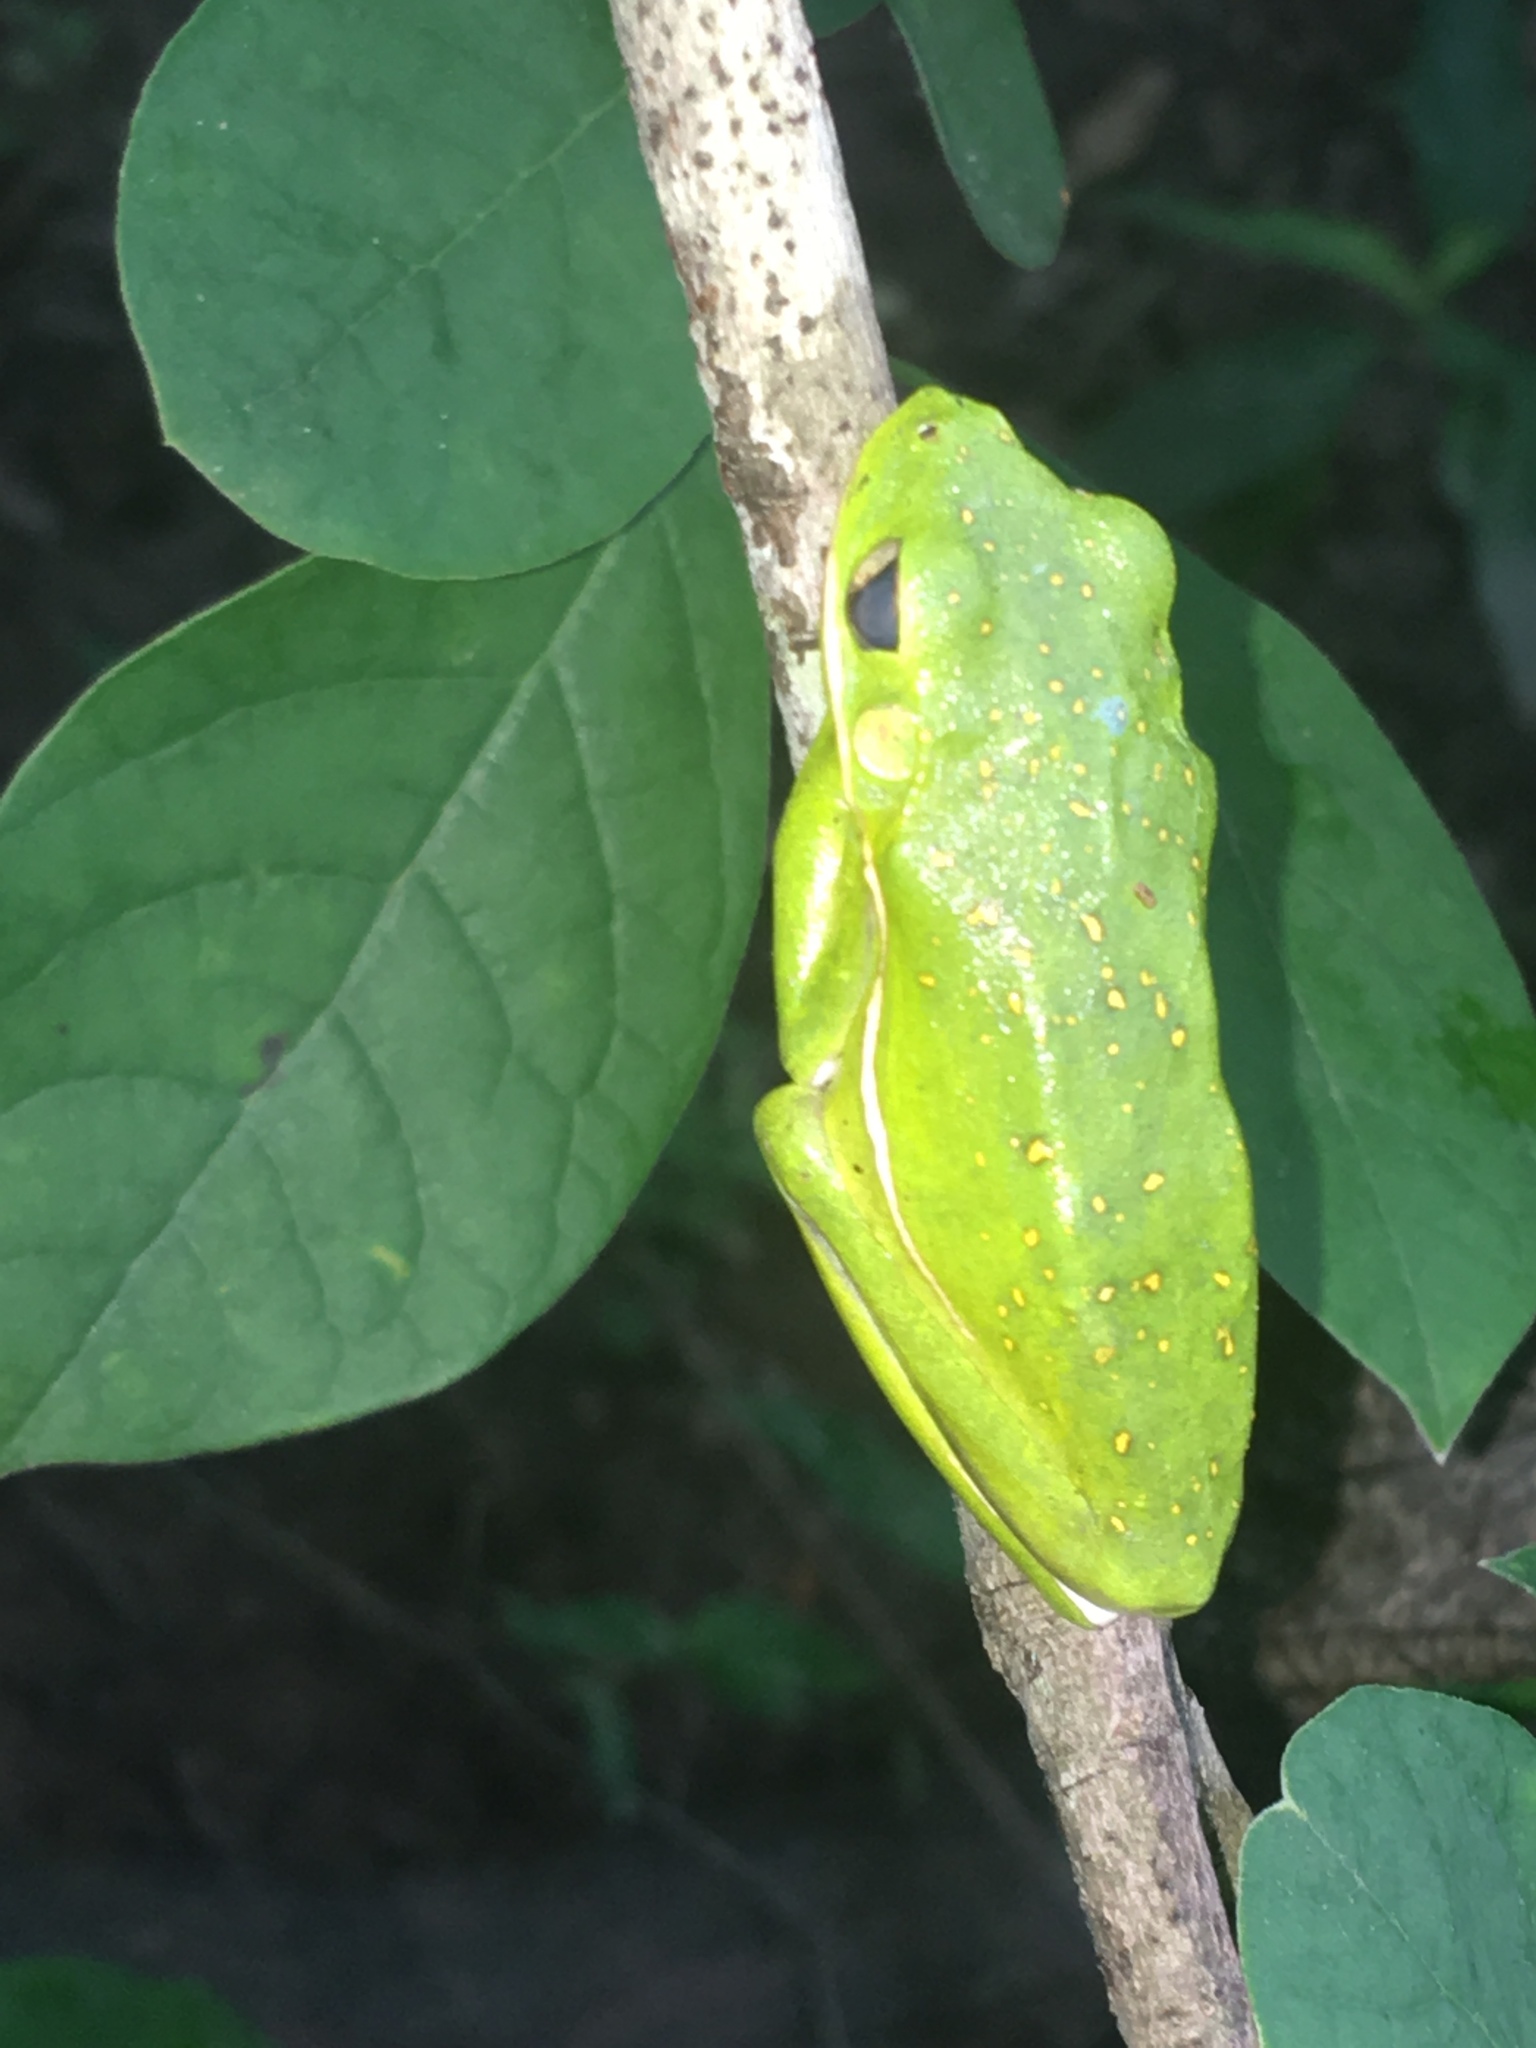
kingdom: Animalia
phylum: Chordata
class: Amphibia
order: Anura
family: Hylidae
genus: Dryophytes
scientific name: Dryophytes cinereus
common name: Green treefrog
